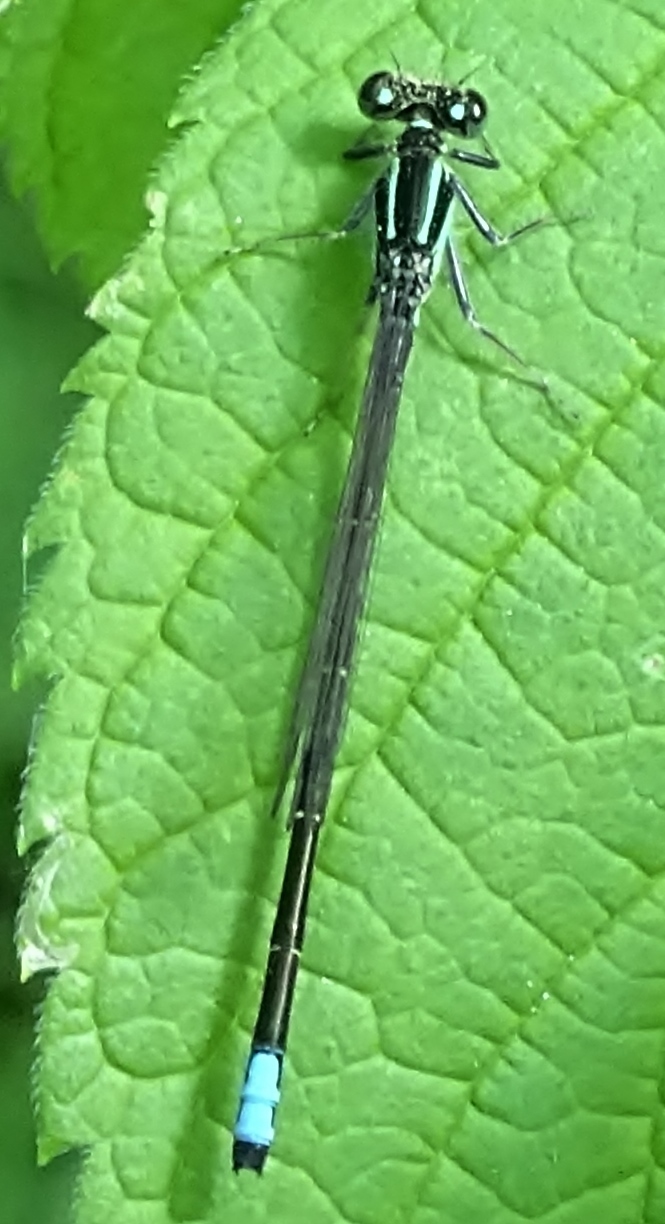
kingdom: Animalia
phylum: Arthropoda
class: Insecta
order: Odonata
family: Coenagrionidae
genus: Ischnura
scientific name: Ischnura verticalis
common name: Eastern forktail
